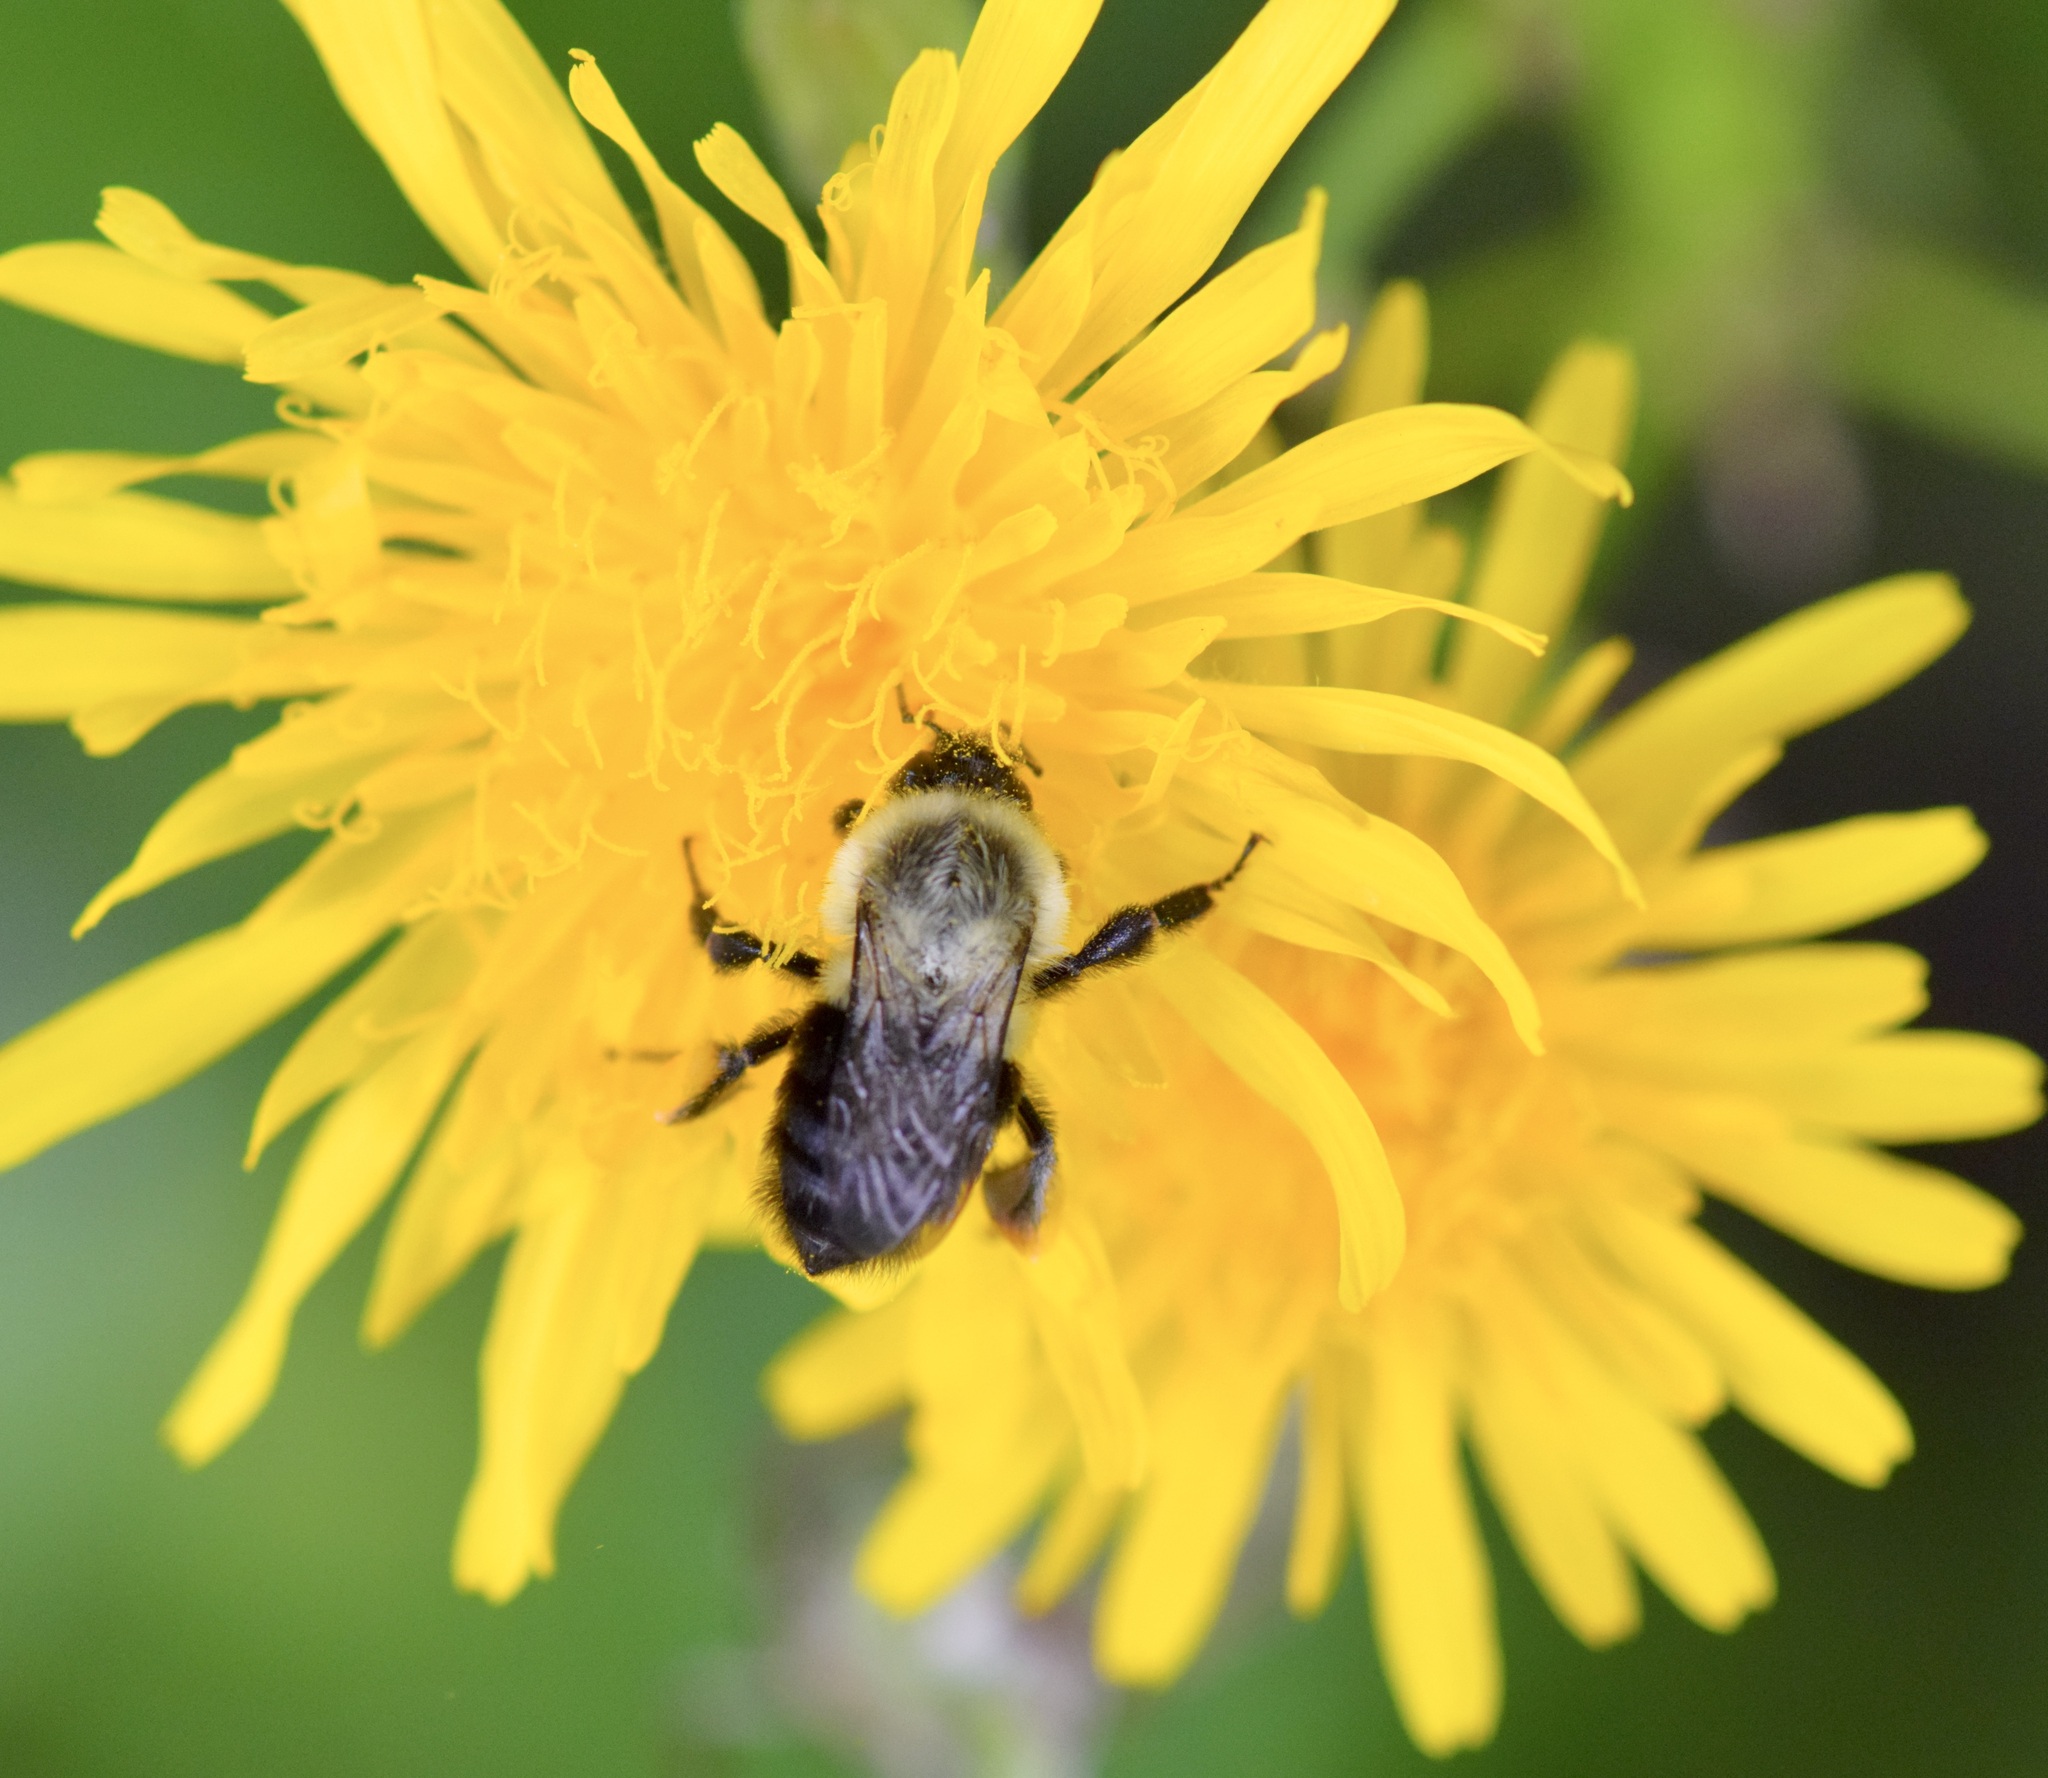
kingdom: Animalia
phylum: Arthropoda
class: Insecta
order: Hymenoptera
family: Apidae
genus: Bombus
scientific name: Bombus impatiens
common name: Common eastern bumble bee
